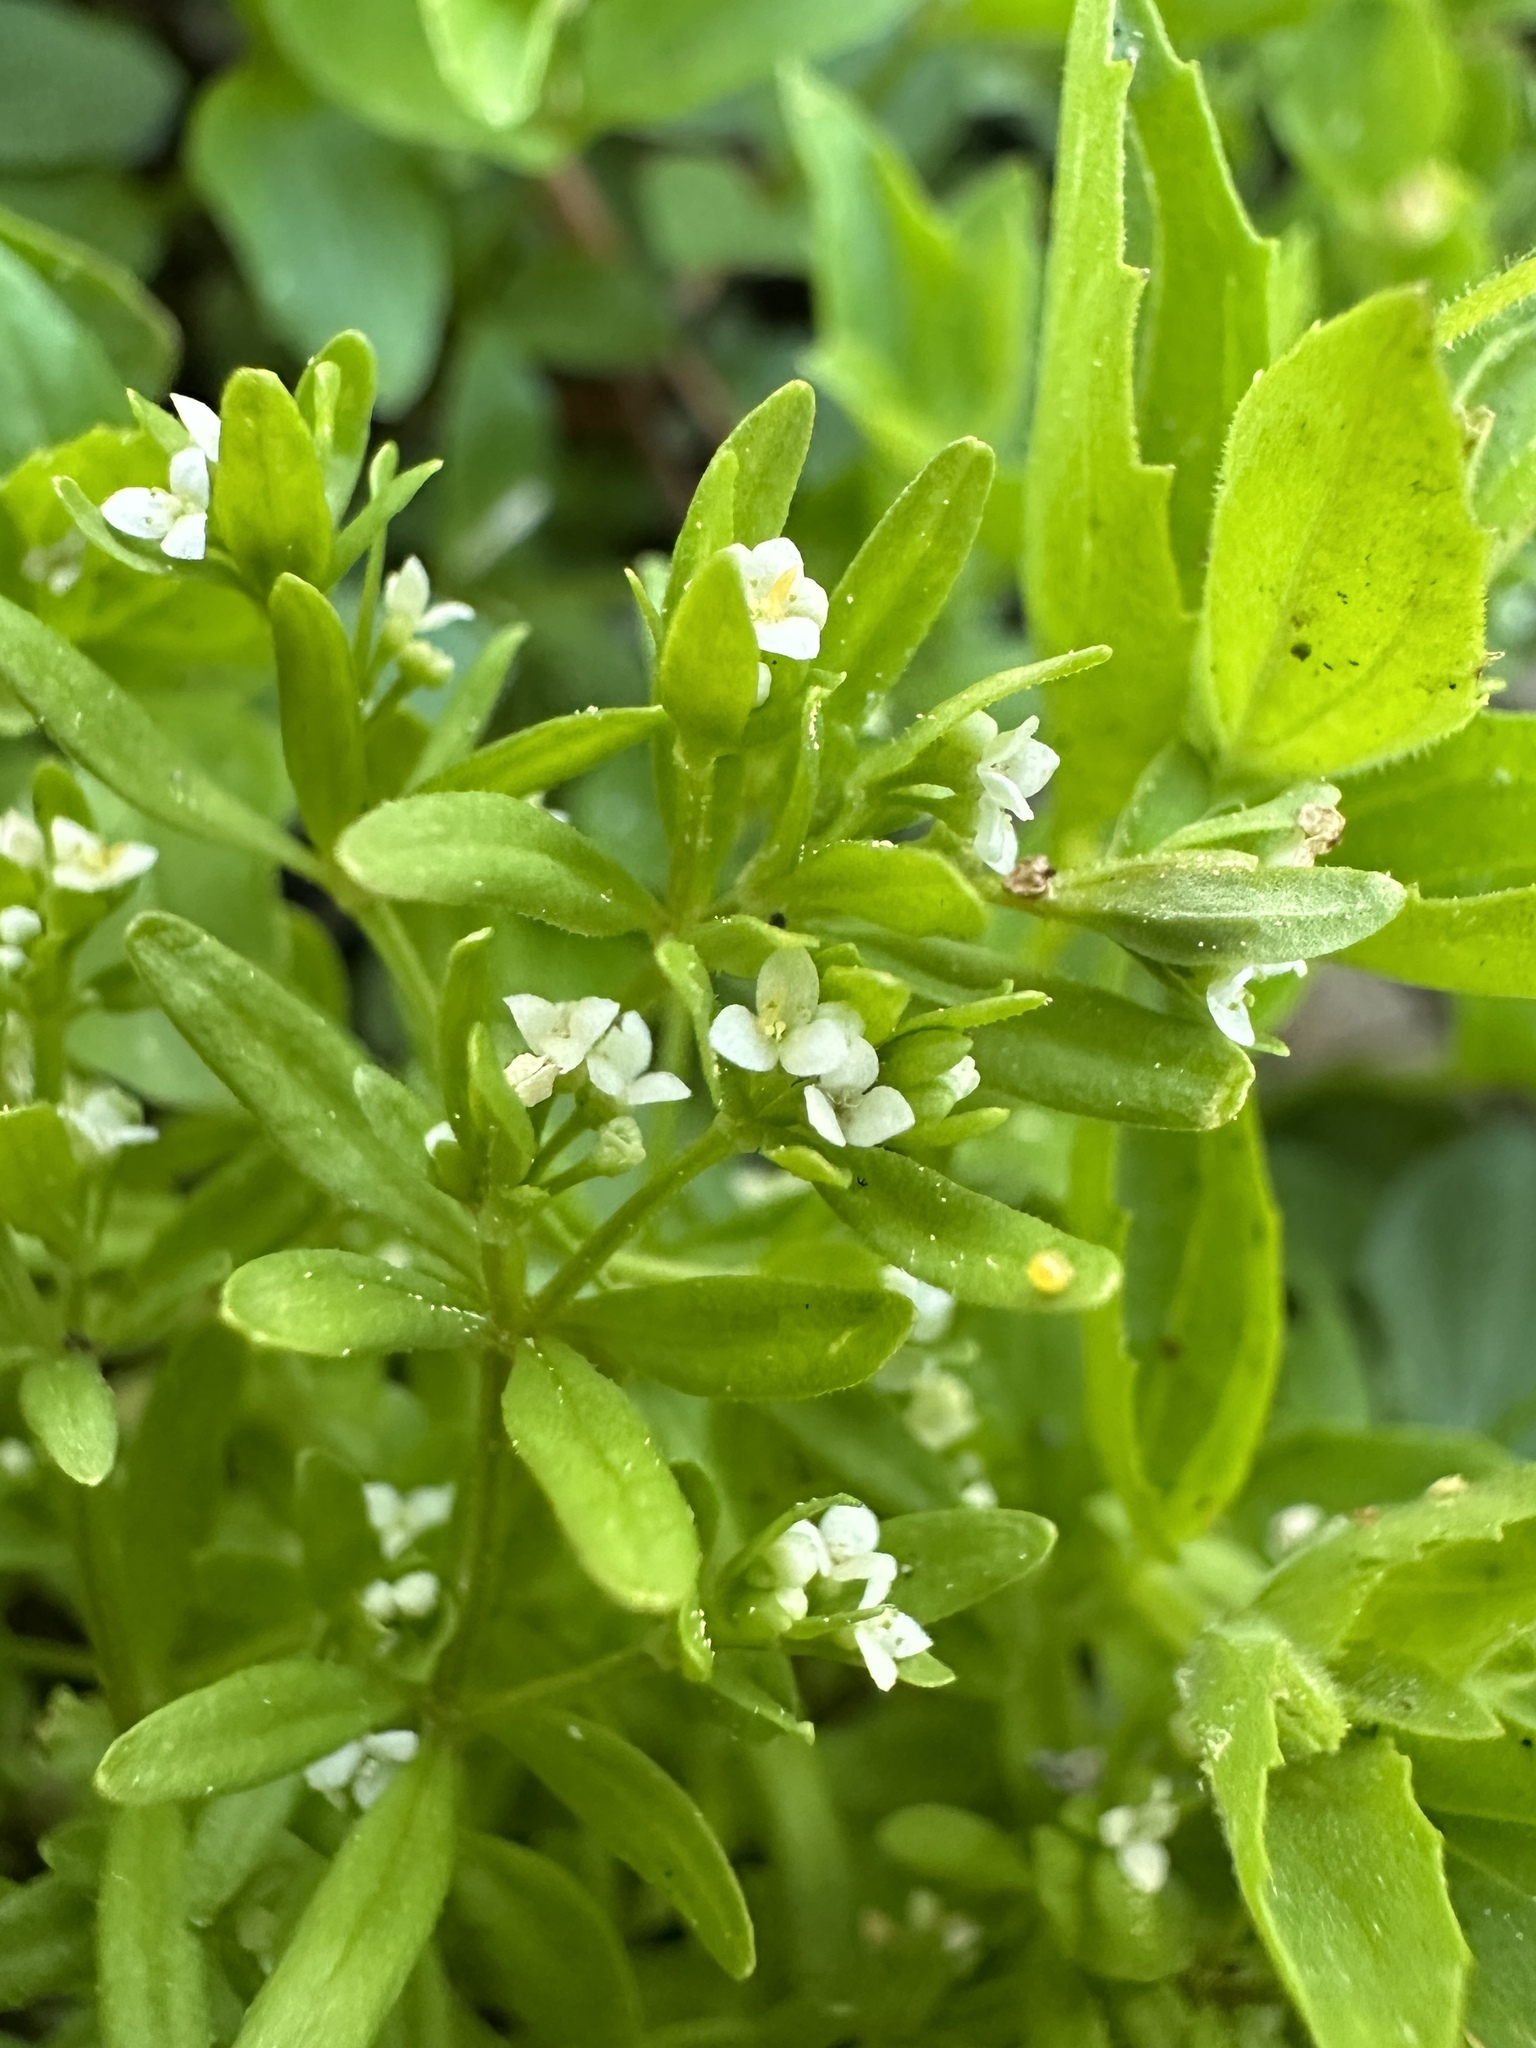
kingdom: Plantae
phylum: Tracheophyta
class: Magnoliopsida
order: Gentianales
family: Rubiaceae
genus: Galium
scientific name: Galium trifidum
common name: Small bedstraw
